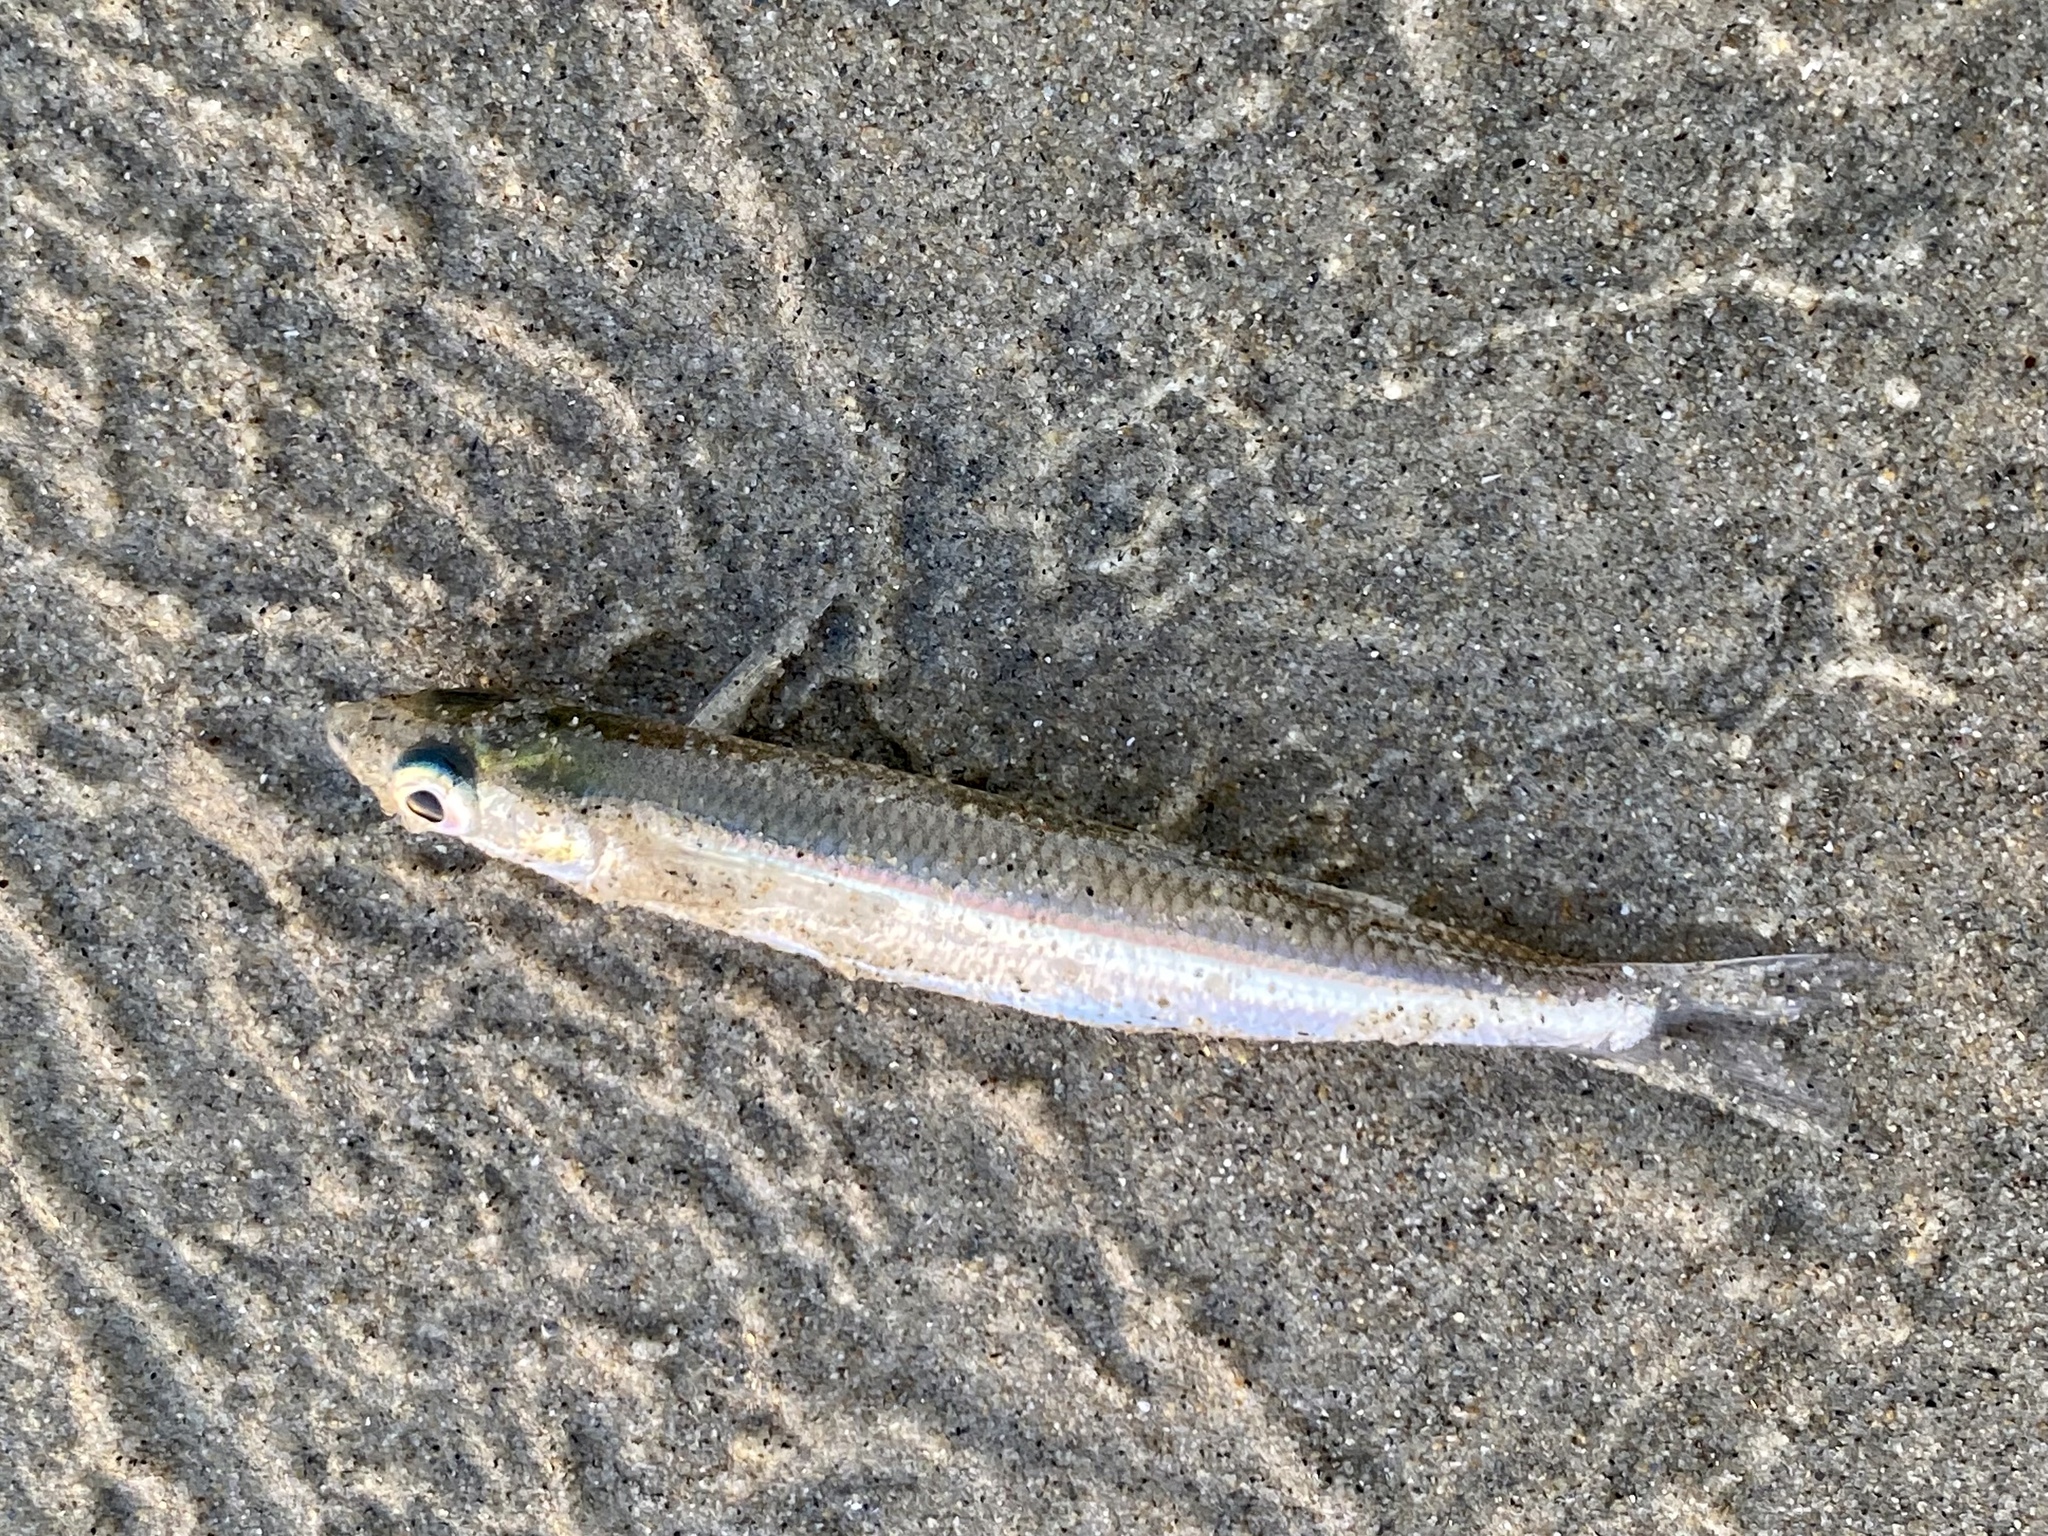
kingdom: Animalia
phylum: Chordata
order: Atheriniformes
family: Atherinopsidae
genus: Atherinops
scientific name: Atherinops affinis
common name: Topsmelt
